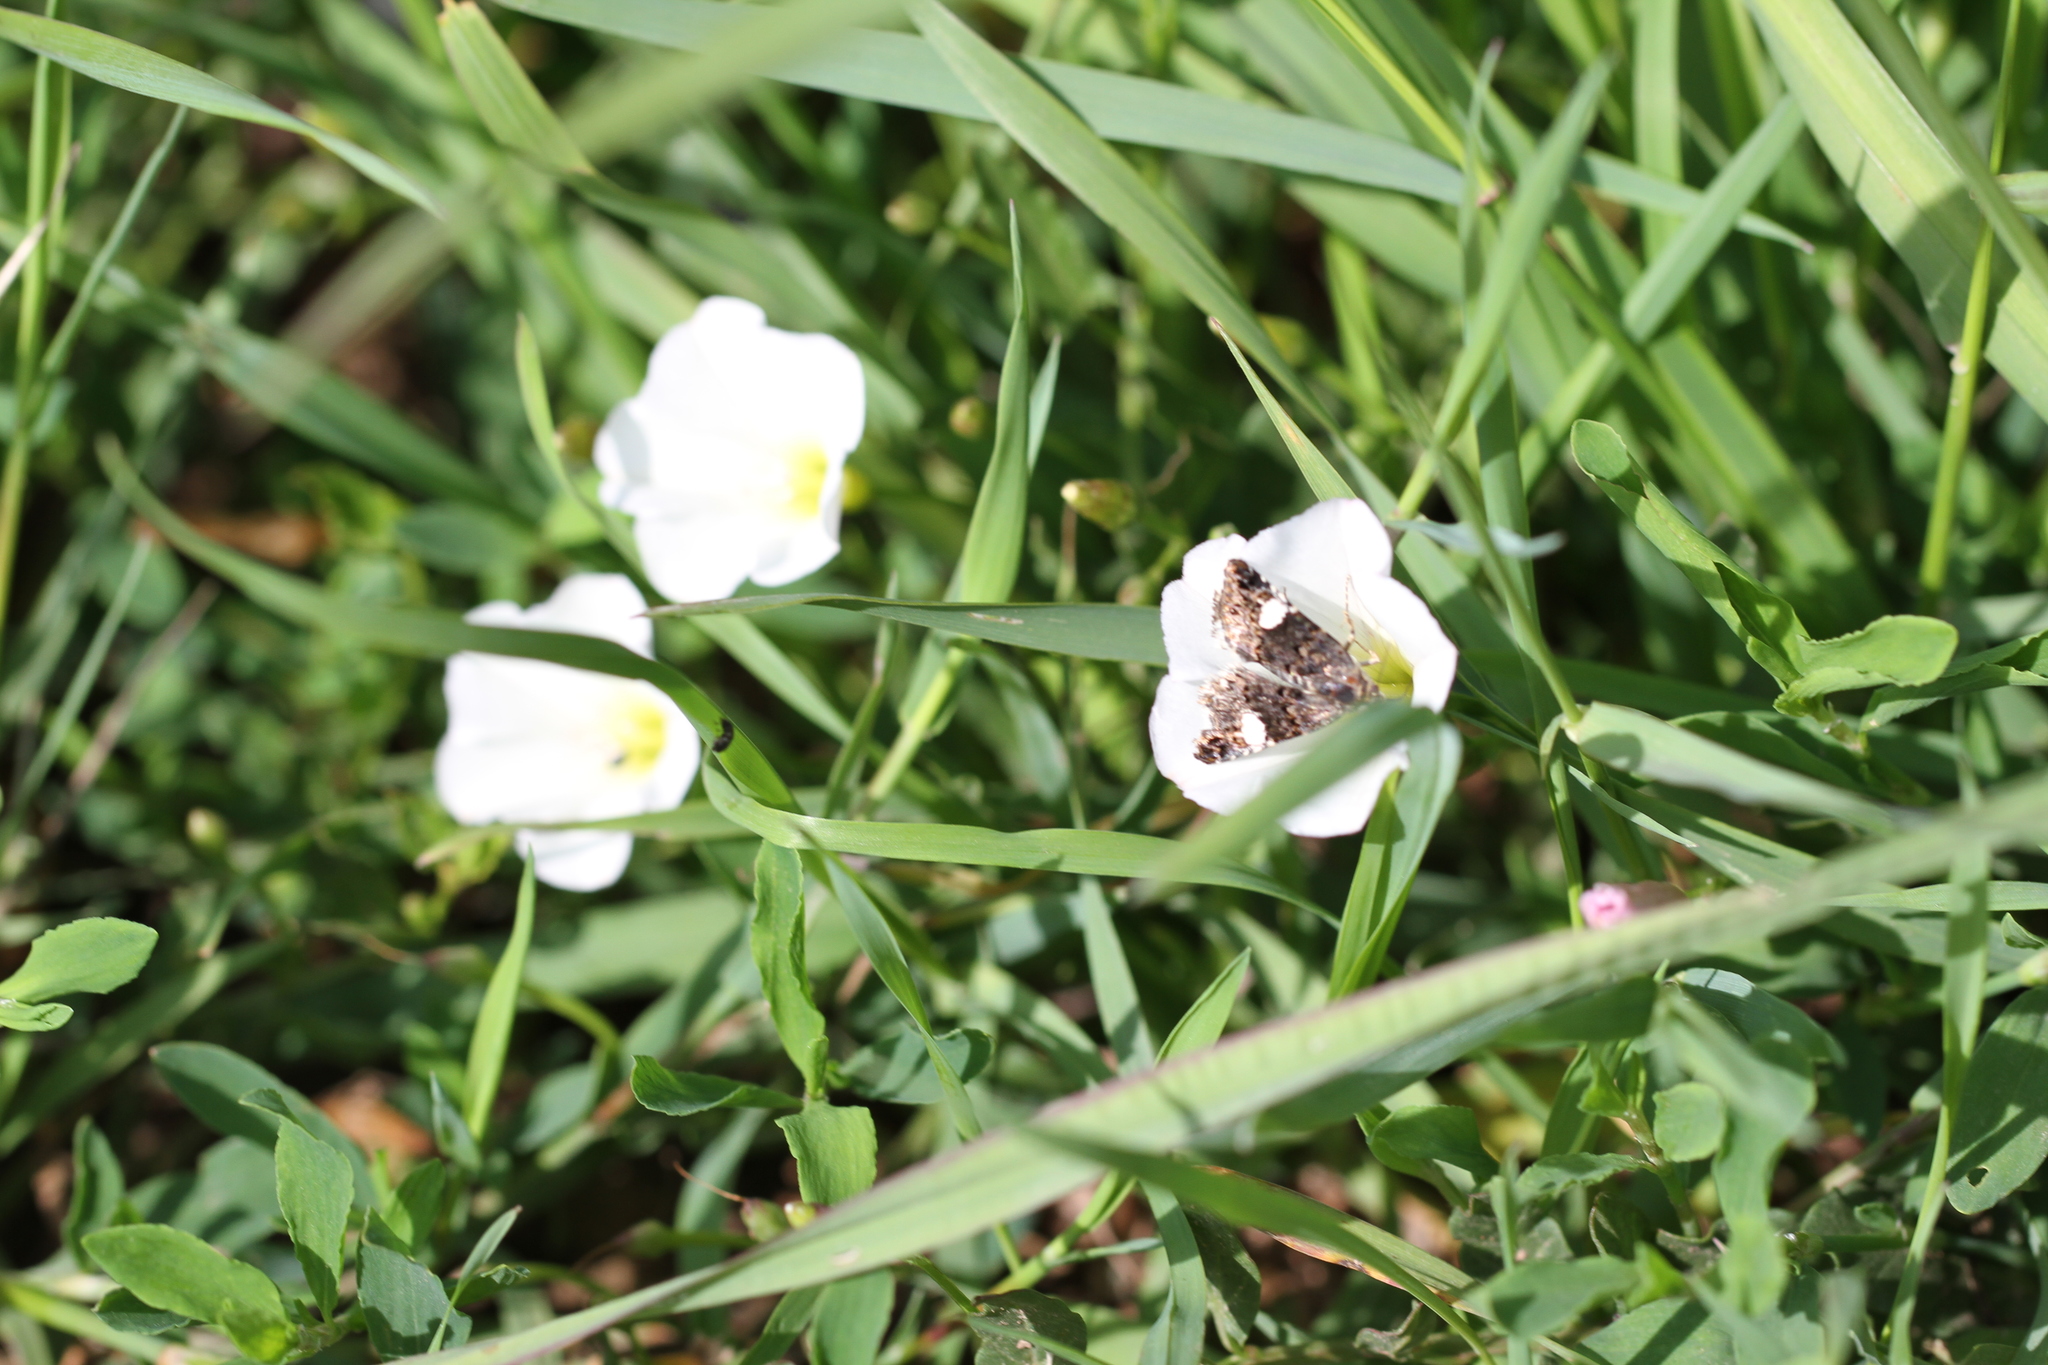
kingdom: Animalia
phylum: Arthropoda
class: Insecta
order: Lepidoptera
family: Erebidae
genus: Tyta
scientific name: Tyta luctuosa
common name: Four-spotted
